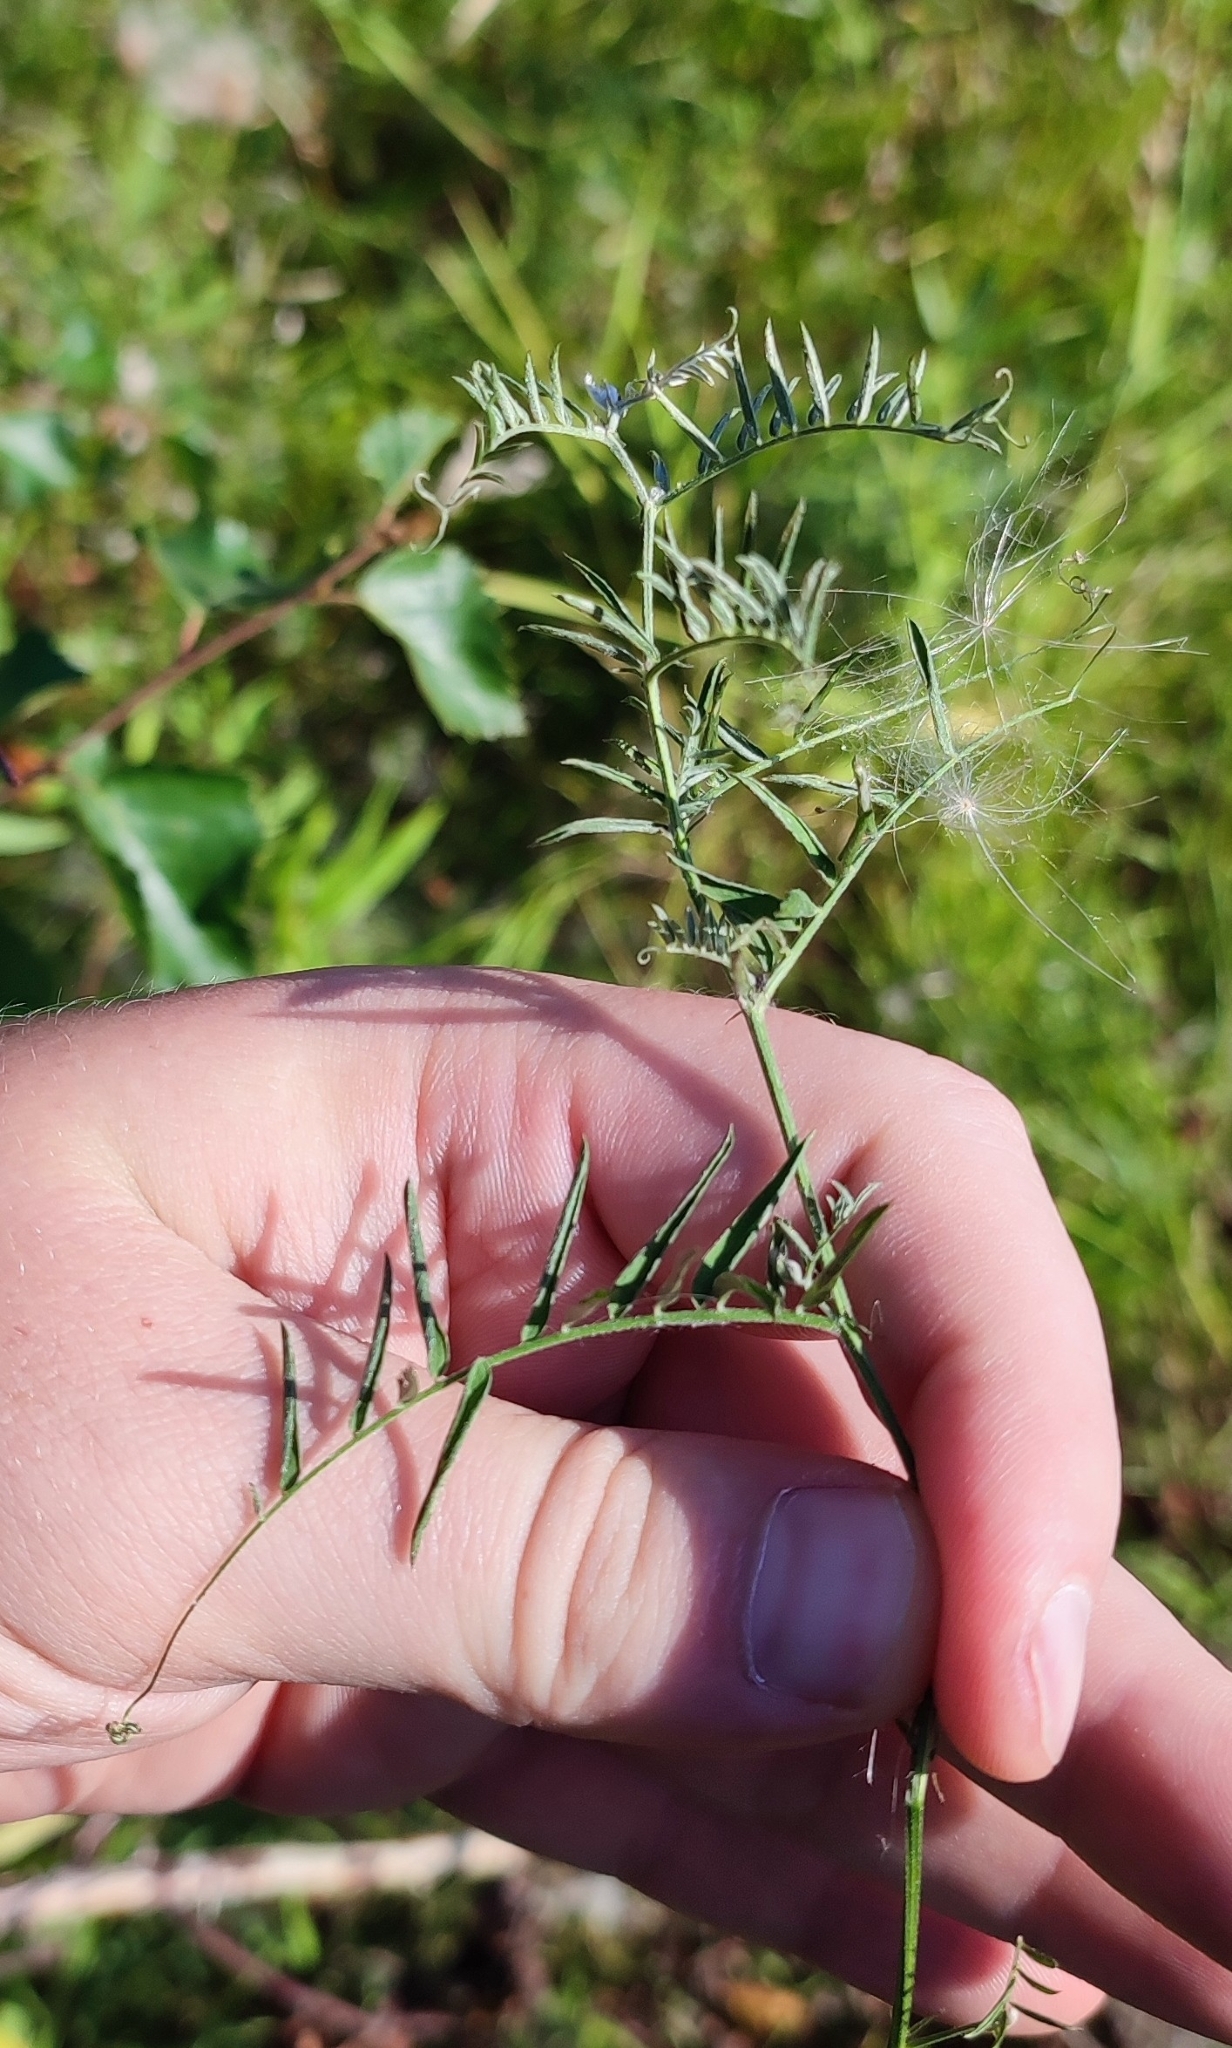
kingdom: Plantae
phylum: Tracheophyta
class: Magnoliopsida
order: Fabales
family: Fabaceae
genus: Vicia
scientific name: Vicia cracca
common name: Bird vetch
